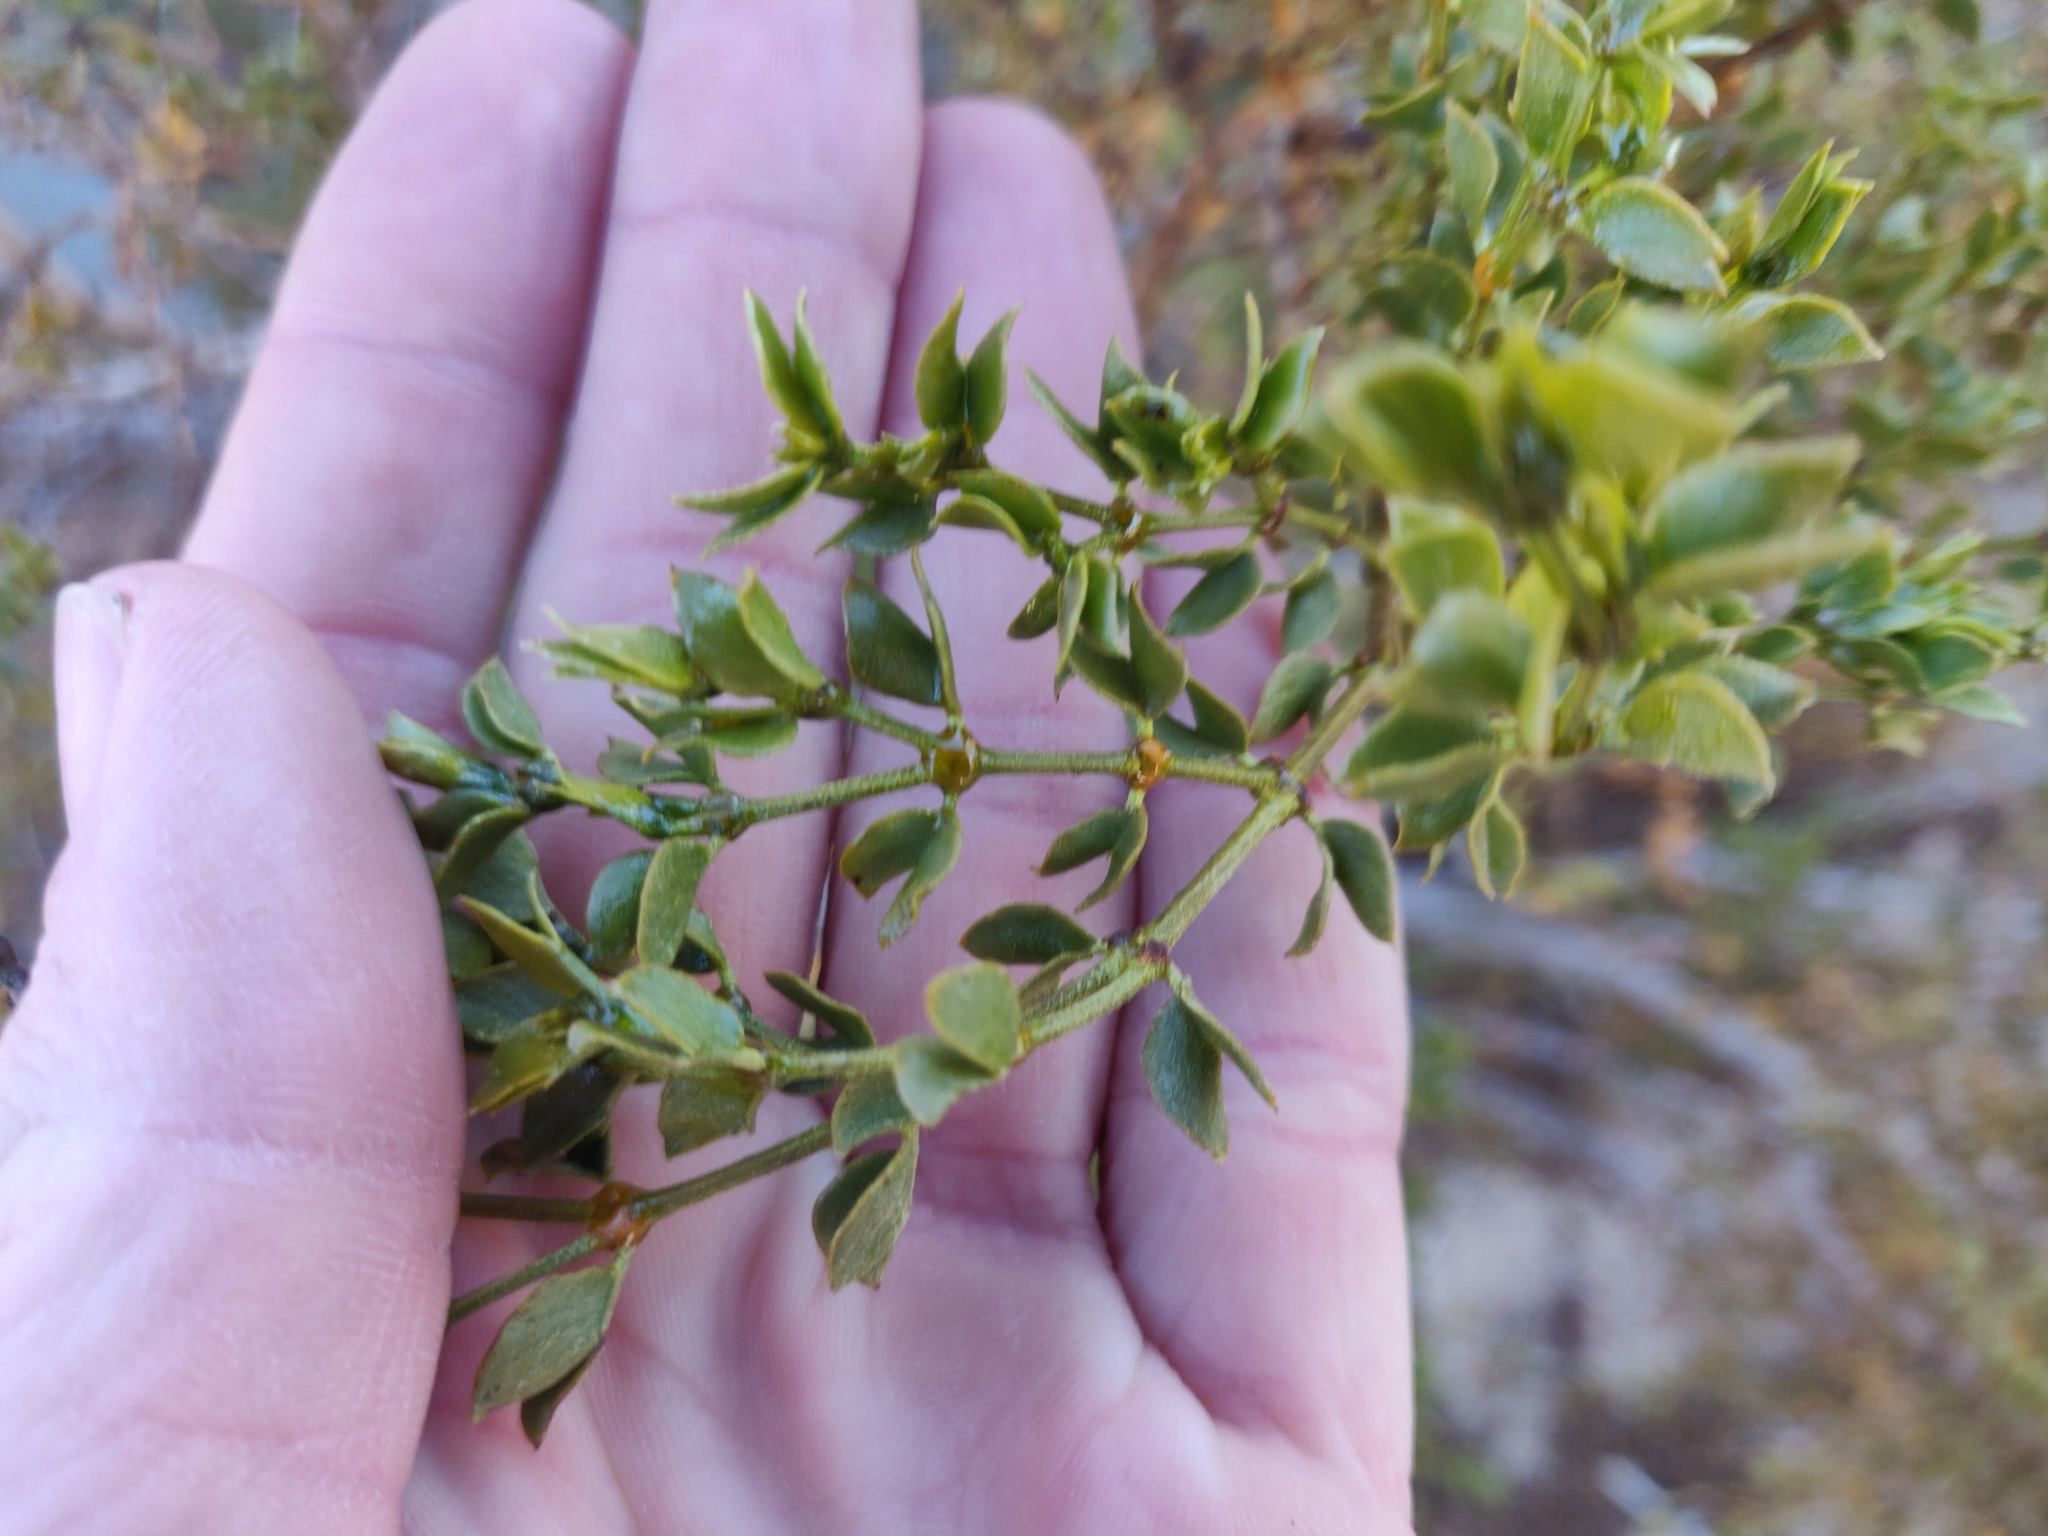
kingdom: Plantae
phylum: Tracheophyta
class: Magnoliopsida
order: Zygophyllales
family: Zygophyllaceae
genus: Larrea
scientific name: Larrea tridentata
